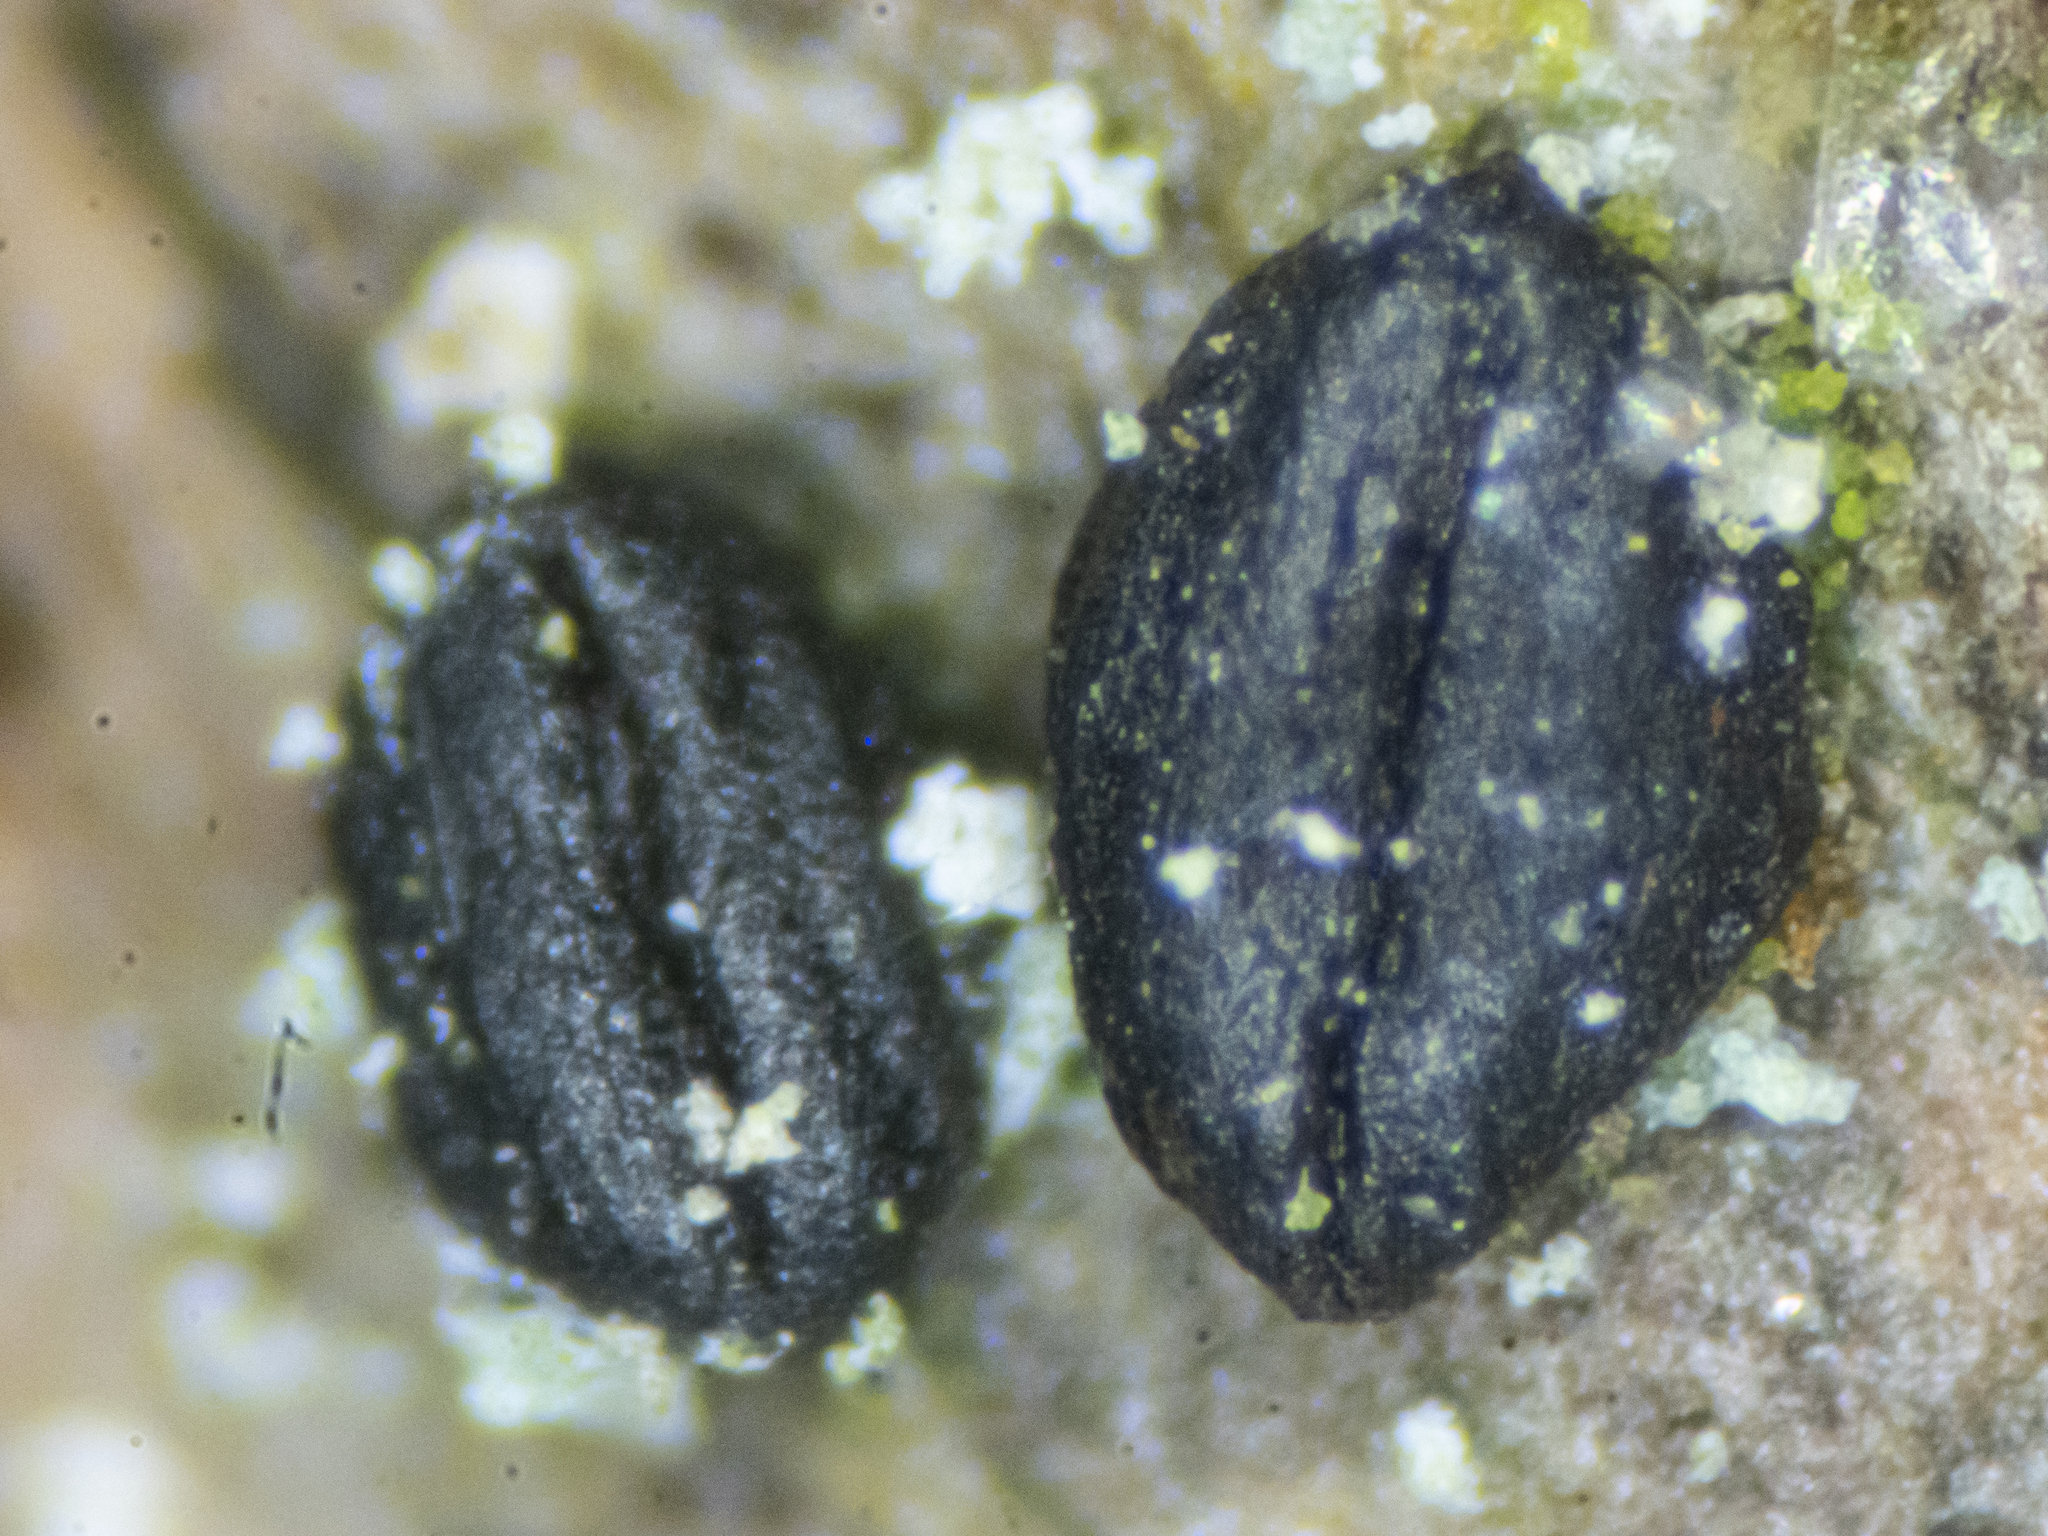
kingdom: Fungi
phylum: Ascomycota
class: Dothideomycetes
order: Hysteriales
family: Hysteriaceae
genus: Hysterium
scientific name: Hysterium pulicare
